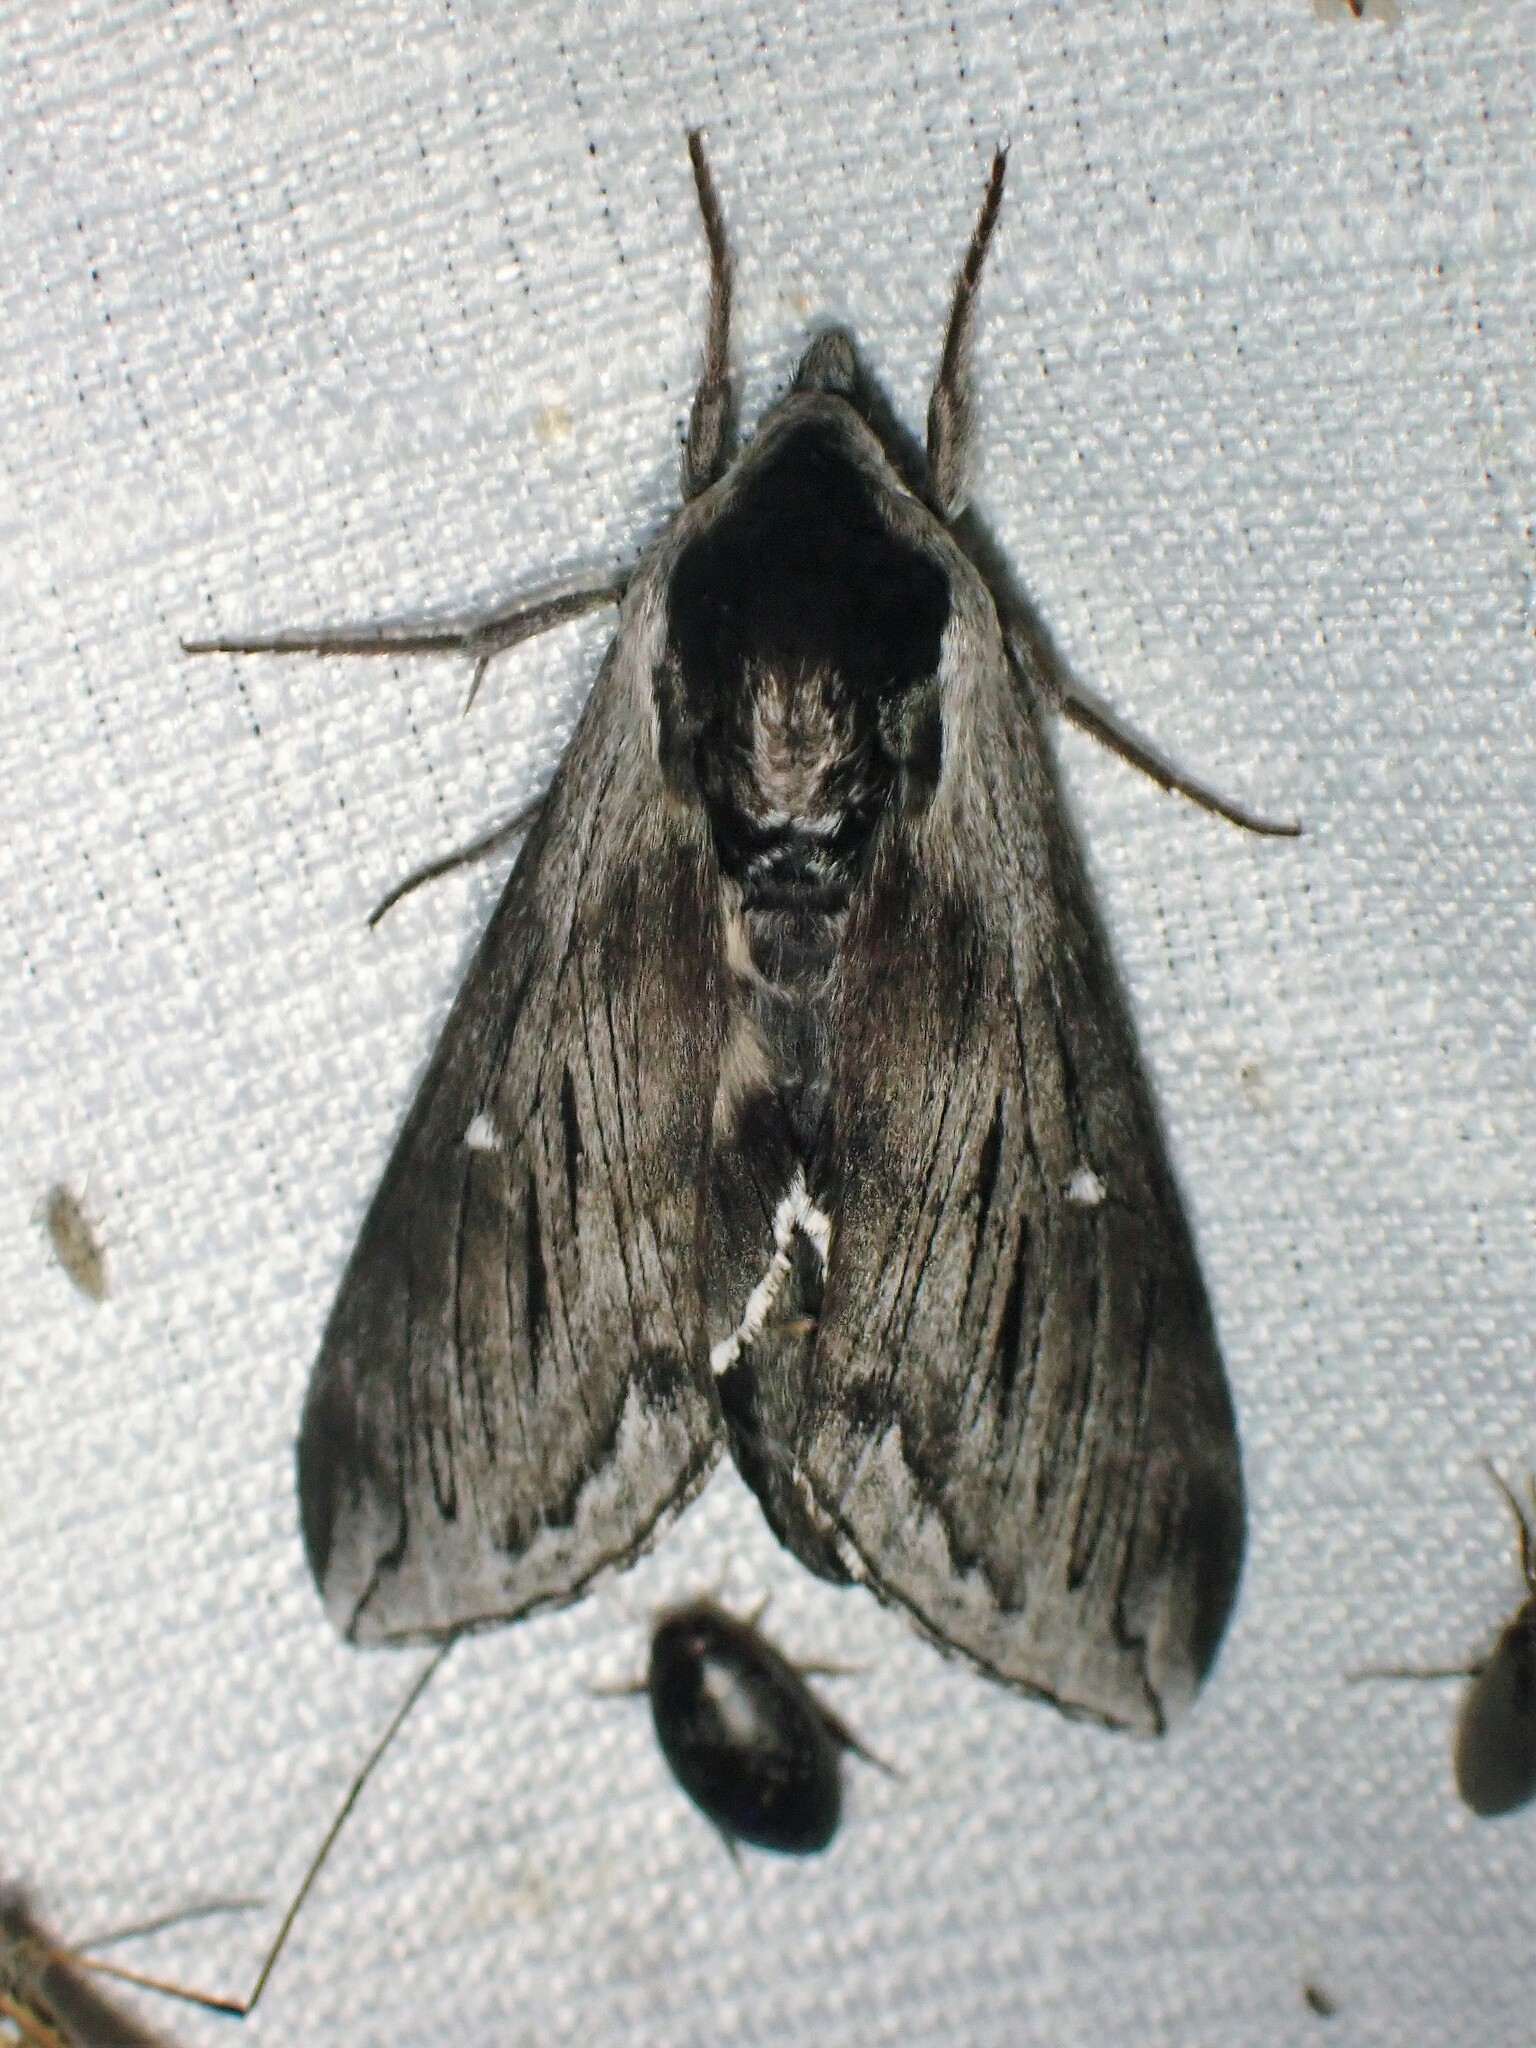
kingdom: Animalia
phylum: Arthropoda
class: Insecta
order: Lepidoptera
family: Sphingidae
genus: Sphinx
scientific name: Sphinx poecila
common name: Northern apple sphinx
